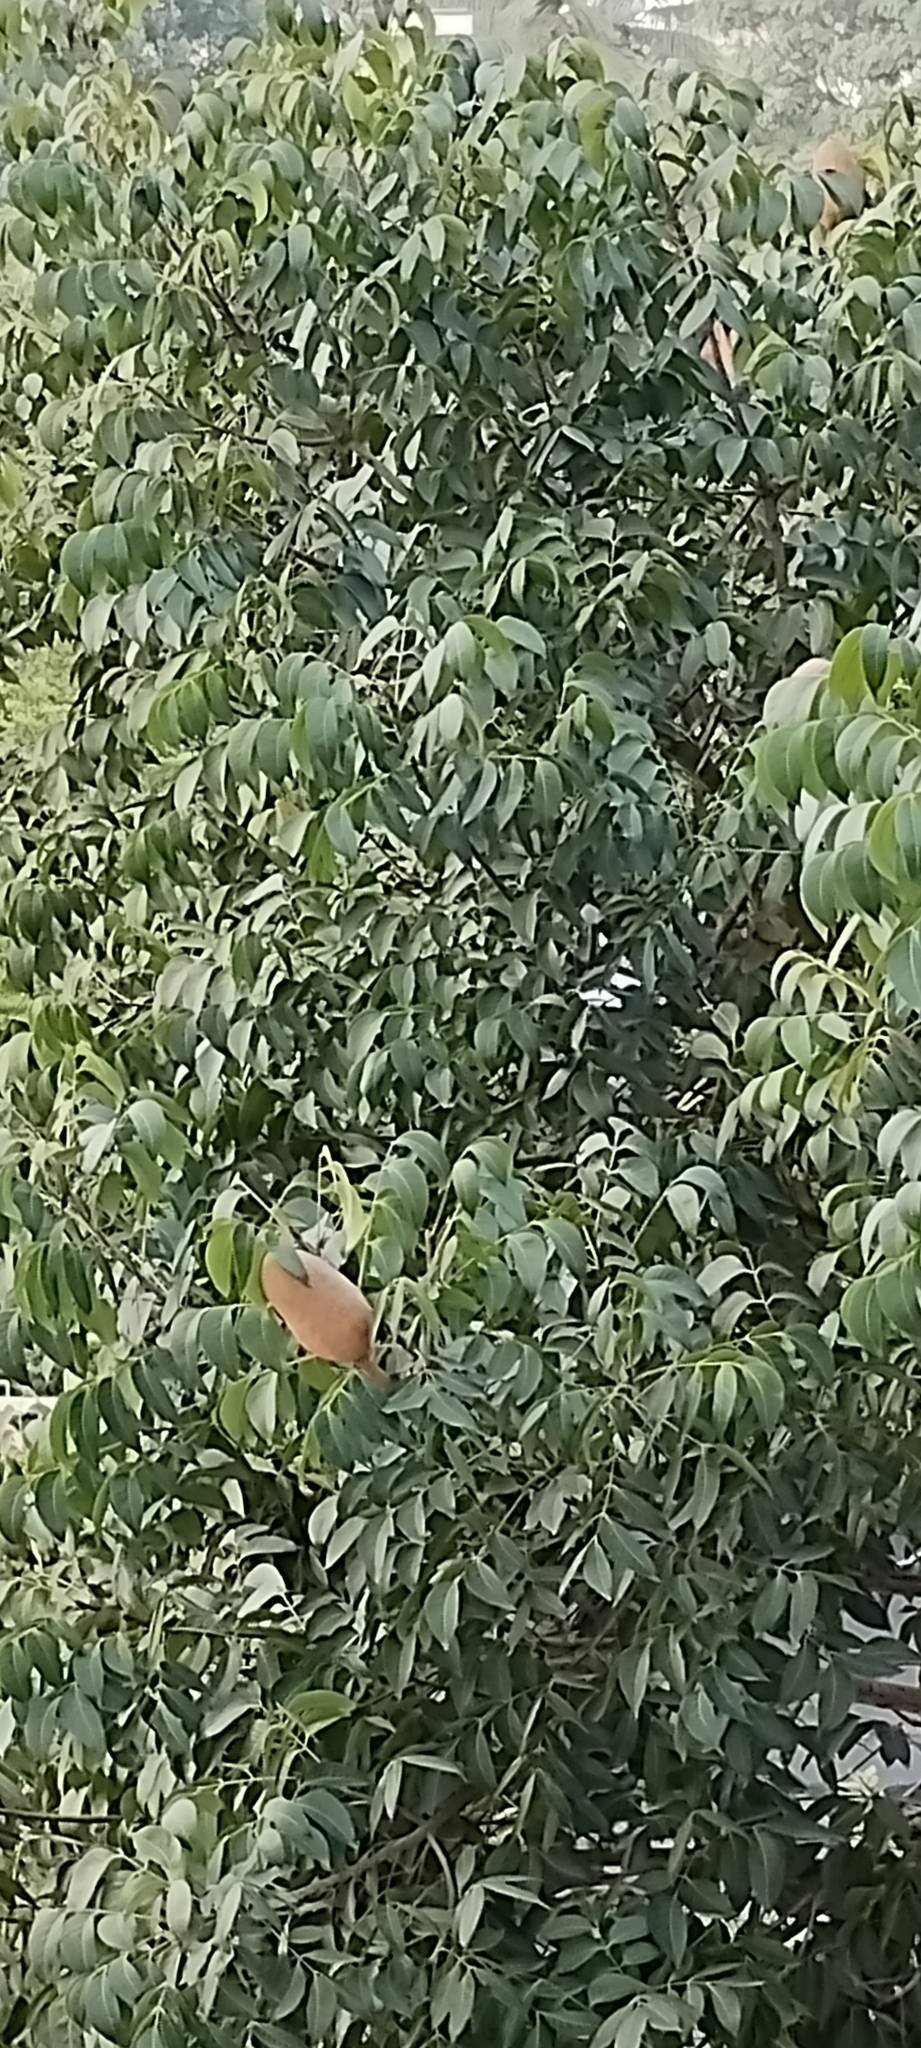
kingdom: Plantae
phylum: Tracheophyta
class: Magnoliopsida
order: Sapindales
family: Meliaceae
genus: Swietenia
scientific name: Swietenia macrophylla
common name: Honduras mahogany
